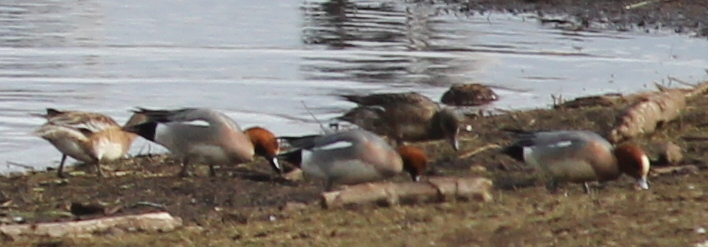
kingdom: Animalia
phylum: Chordata
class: Aves
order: Anseriformes
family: Anatidae
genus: Mareca
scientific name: Mareca penelope
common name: Eurasian wigeon
